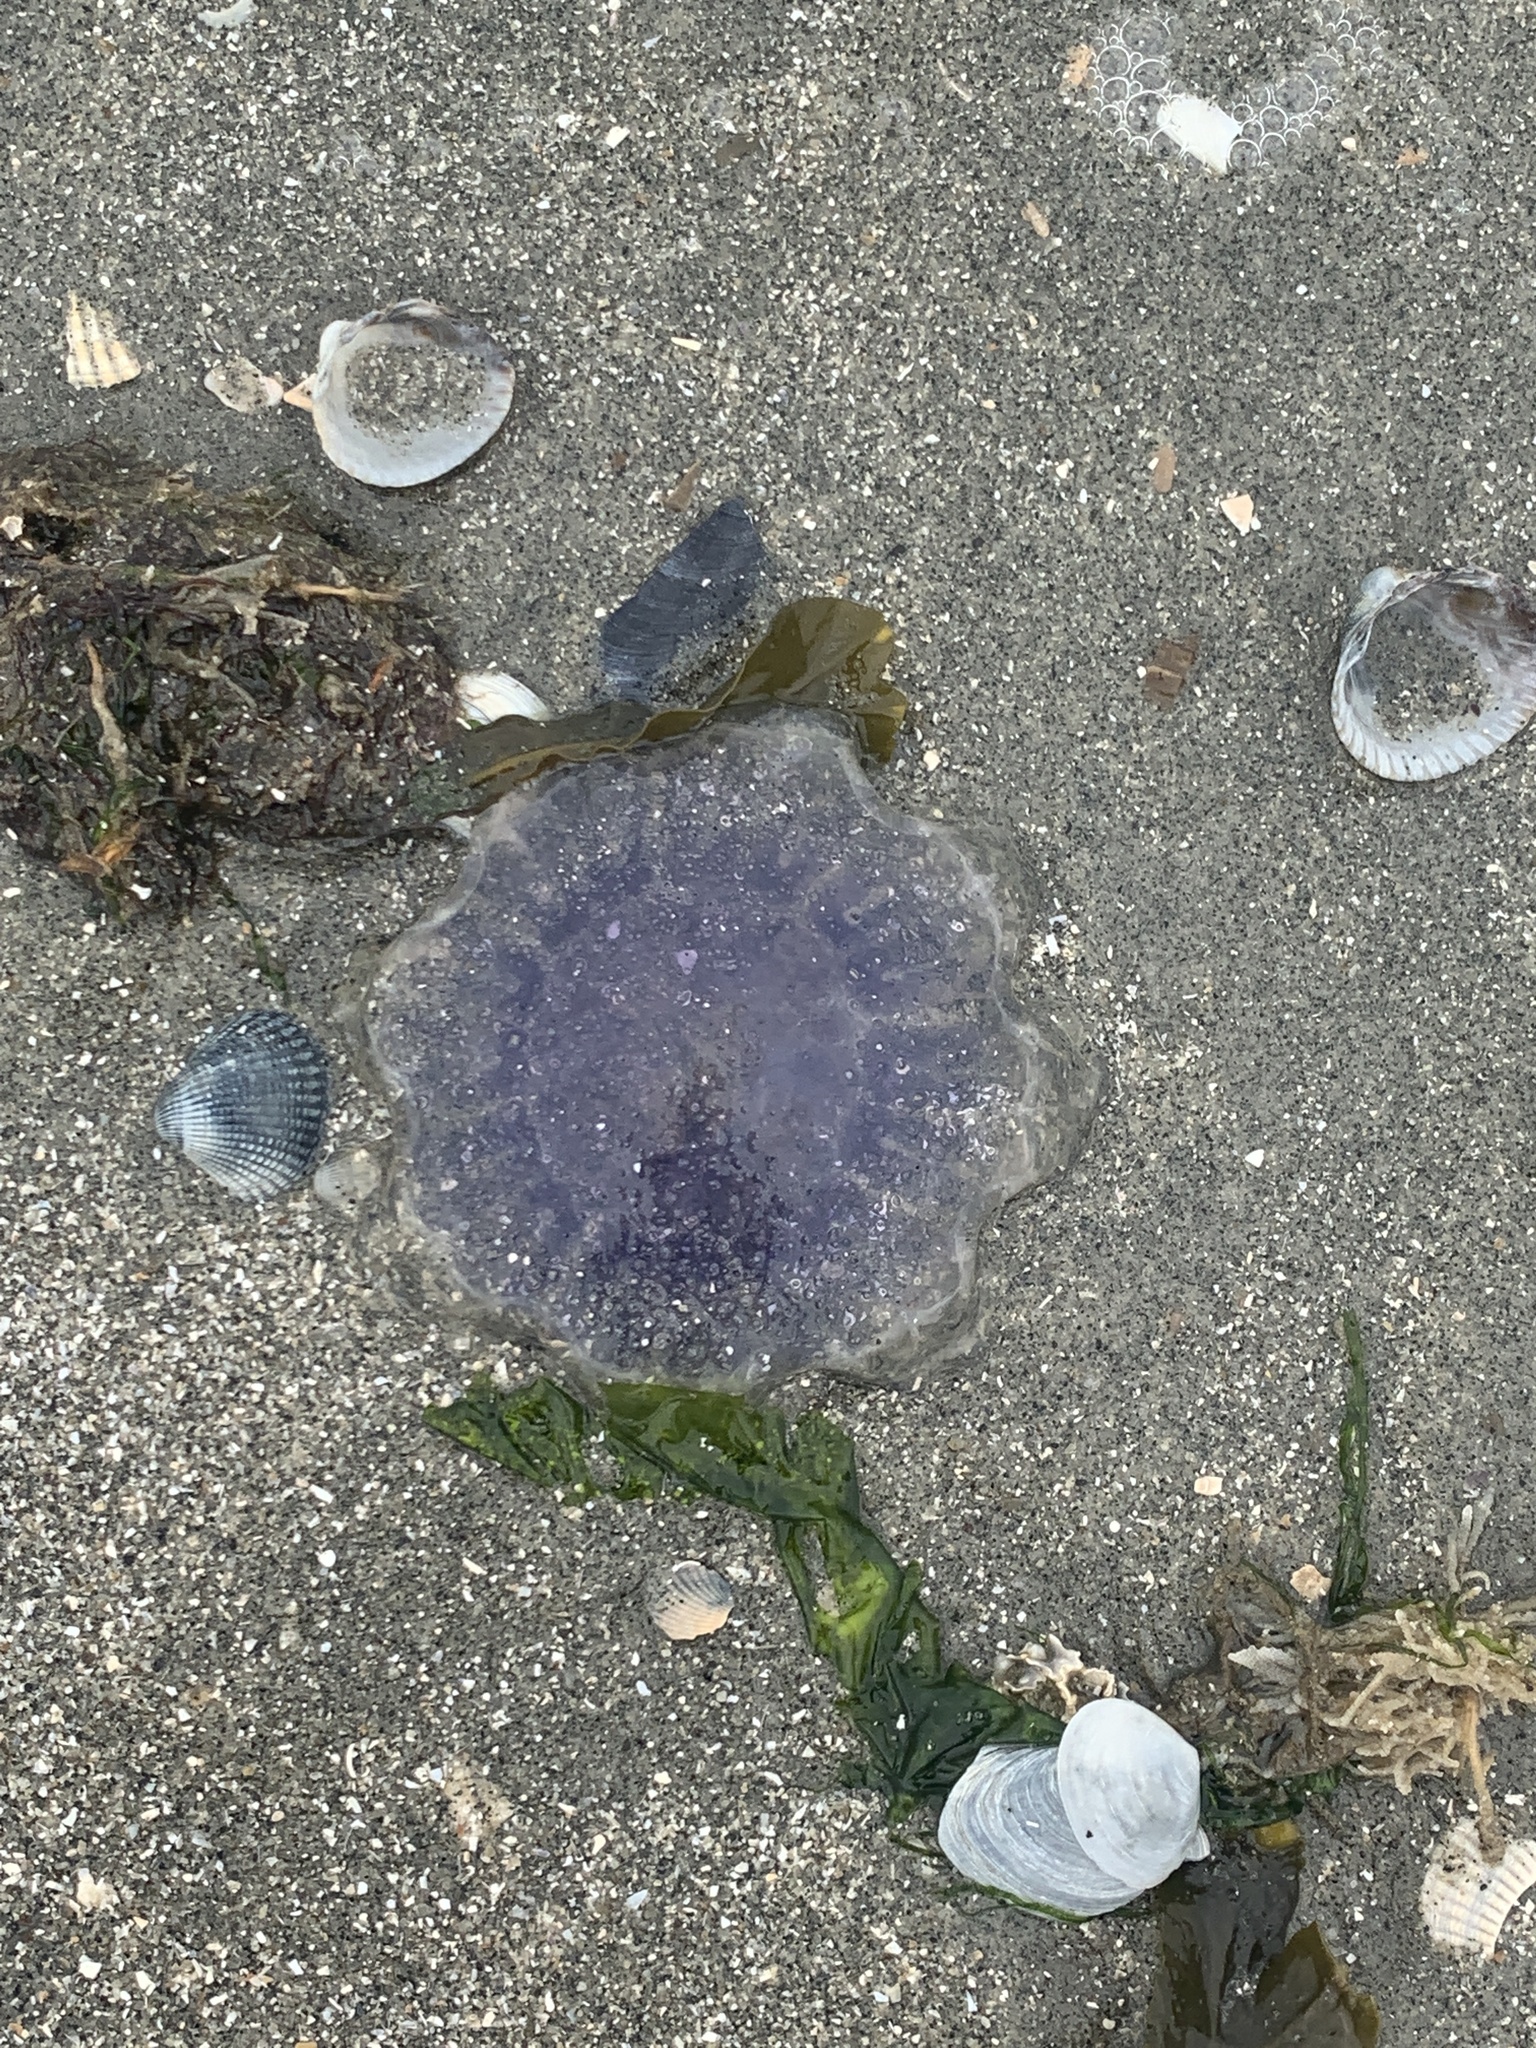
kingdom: Animalia
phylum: Cnidaria
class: Scyphozoa
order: Semaeostomeae
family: Cyaneidae
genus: Cyanea
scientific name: Cyanea lamarckii
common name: Blue jellyfish
